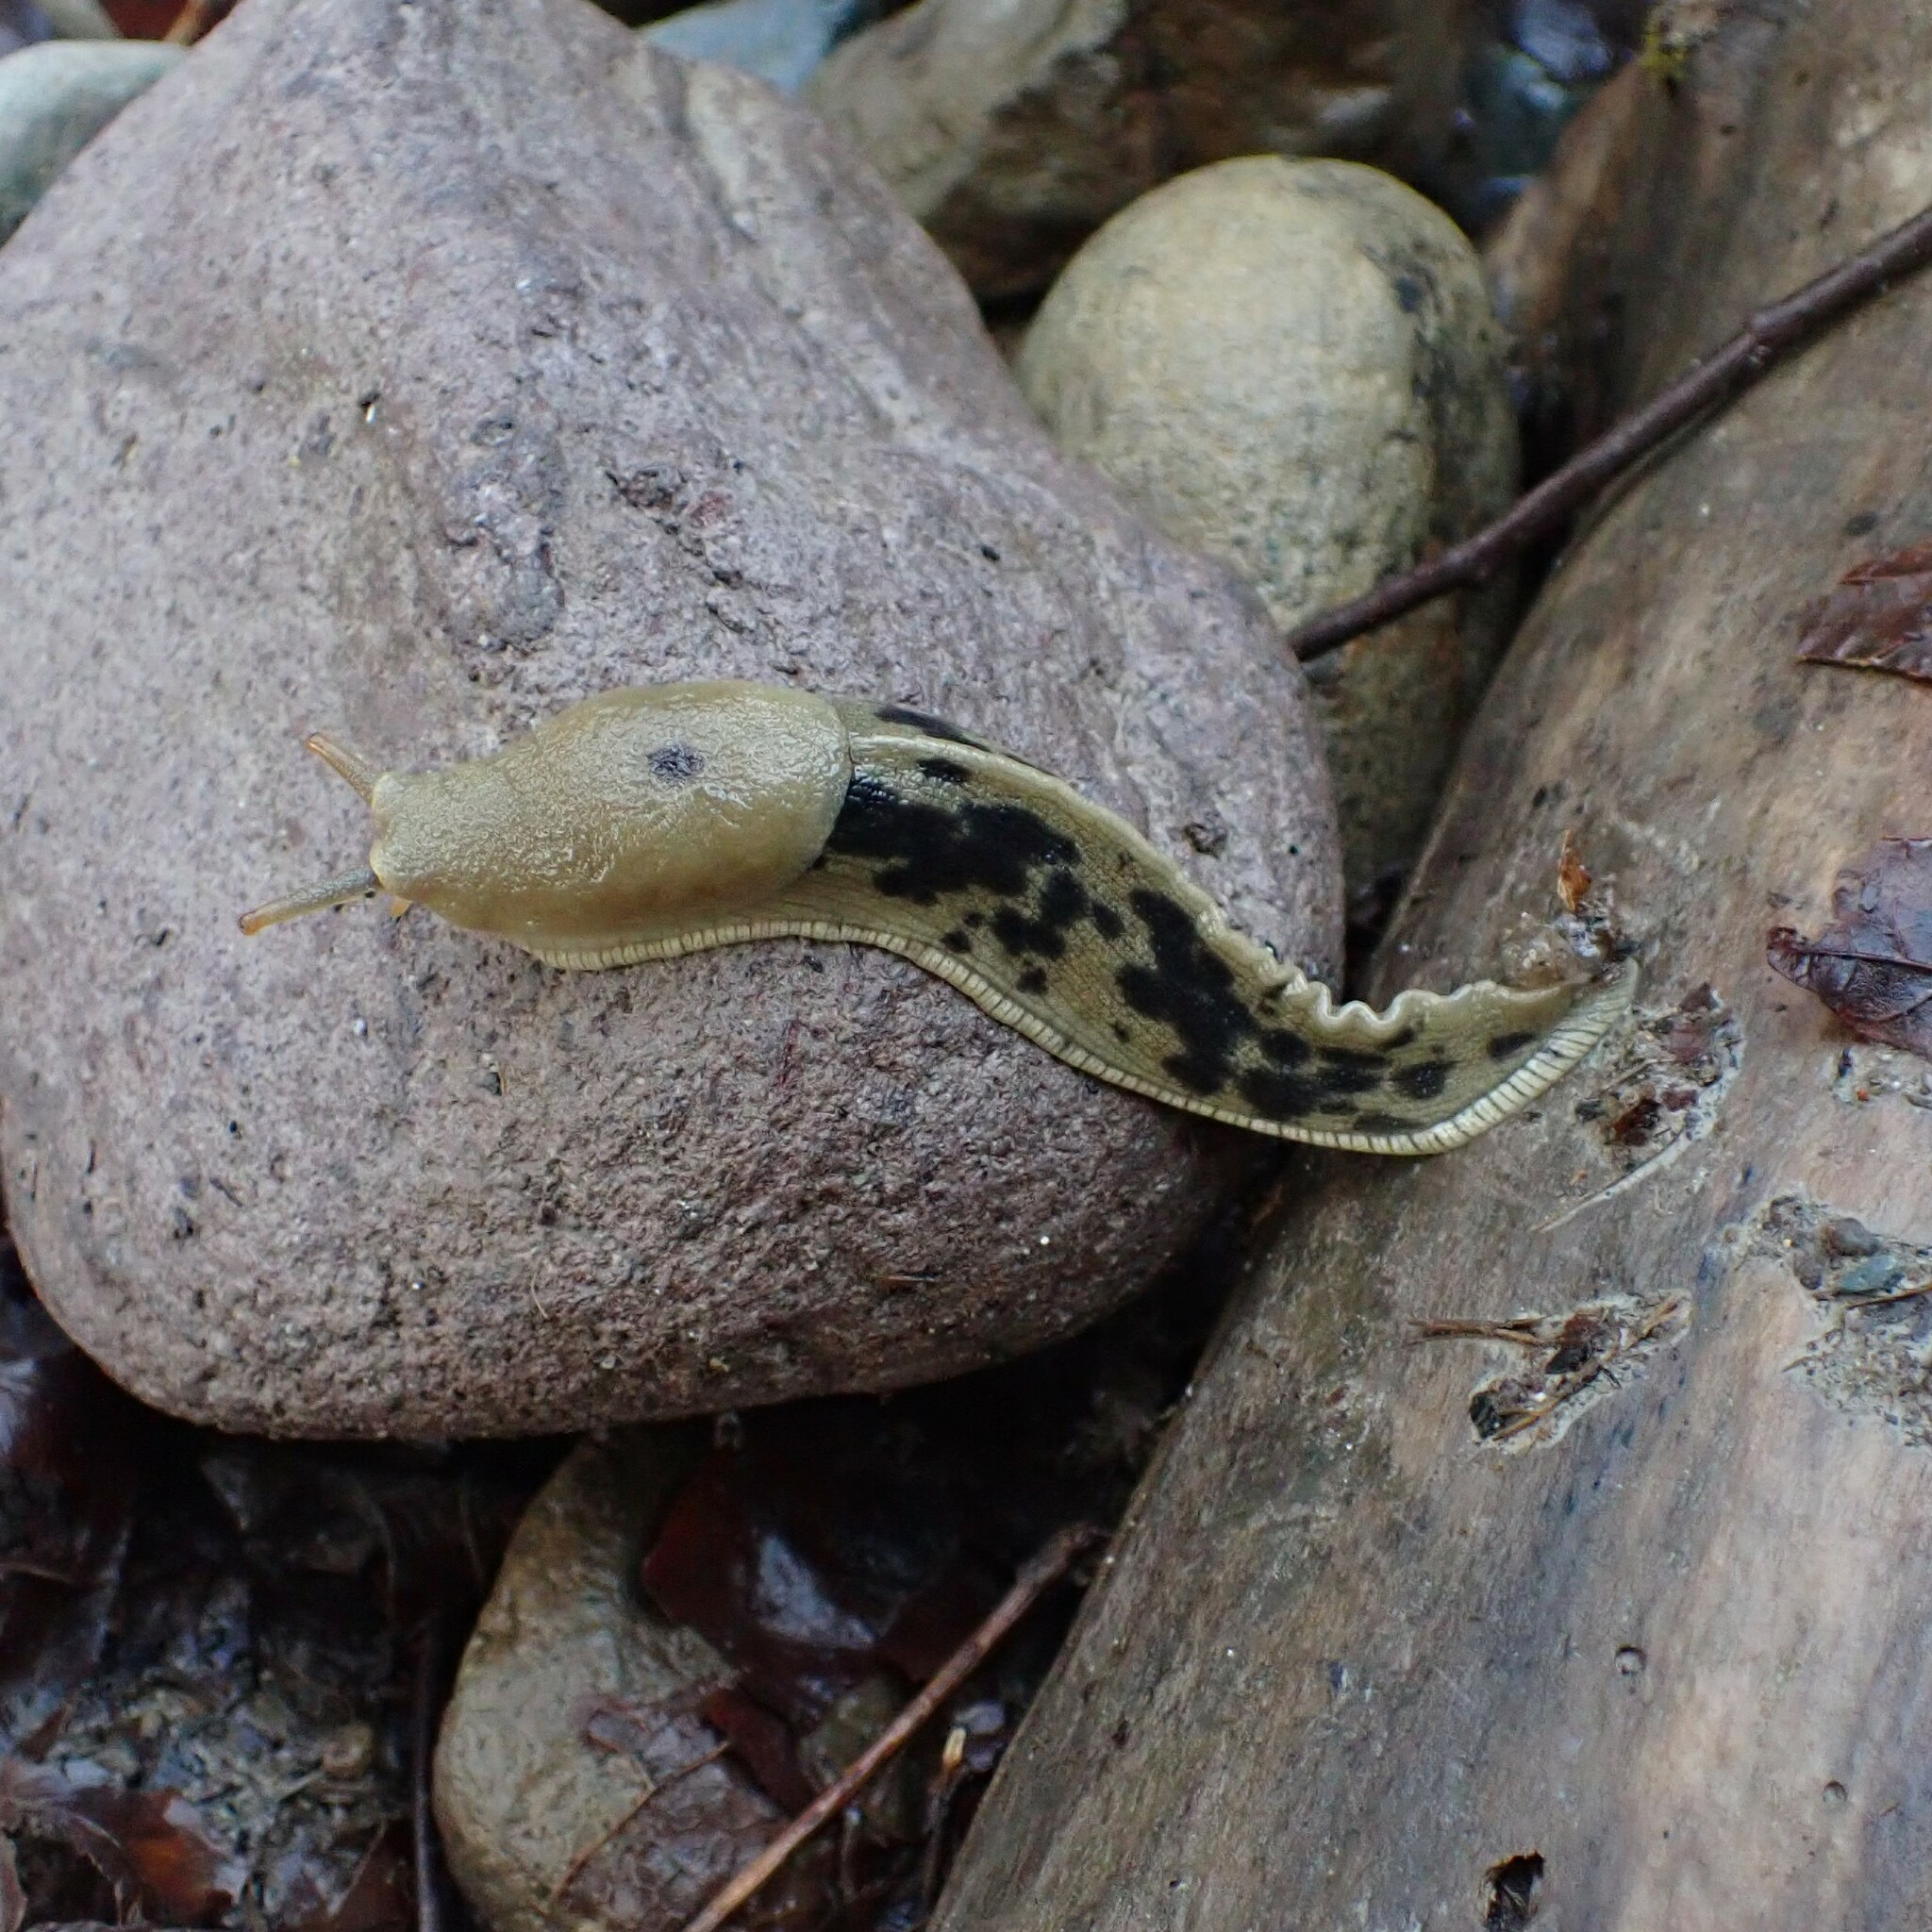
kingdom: Animalia
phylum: Mollusca
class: Gastropoda
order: Stylommatophora
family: Ariolimacidae
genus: Ariolimax
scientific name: Ariolimax columbianus
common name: Pacific banana slug
